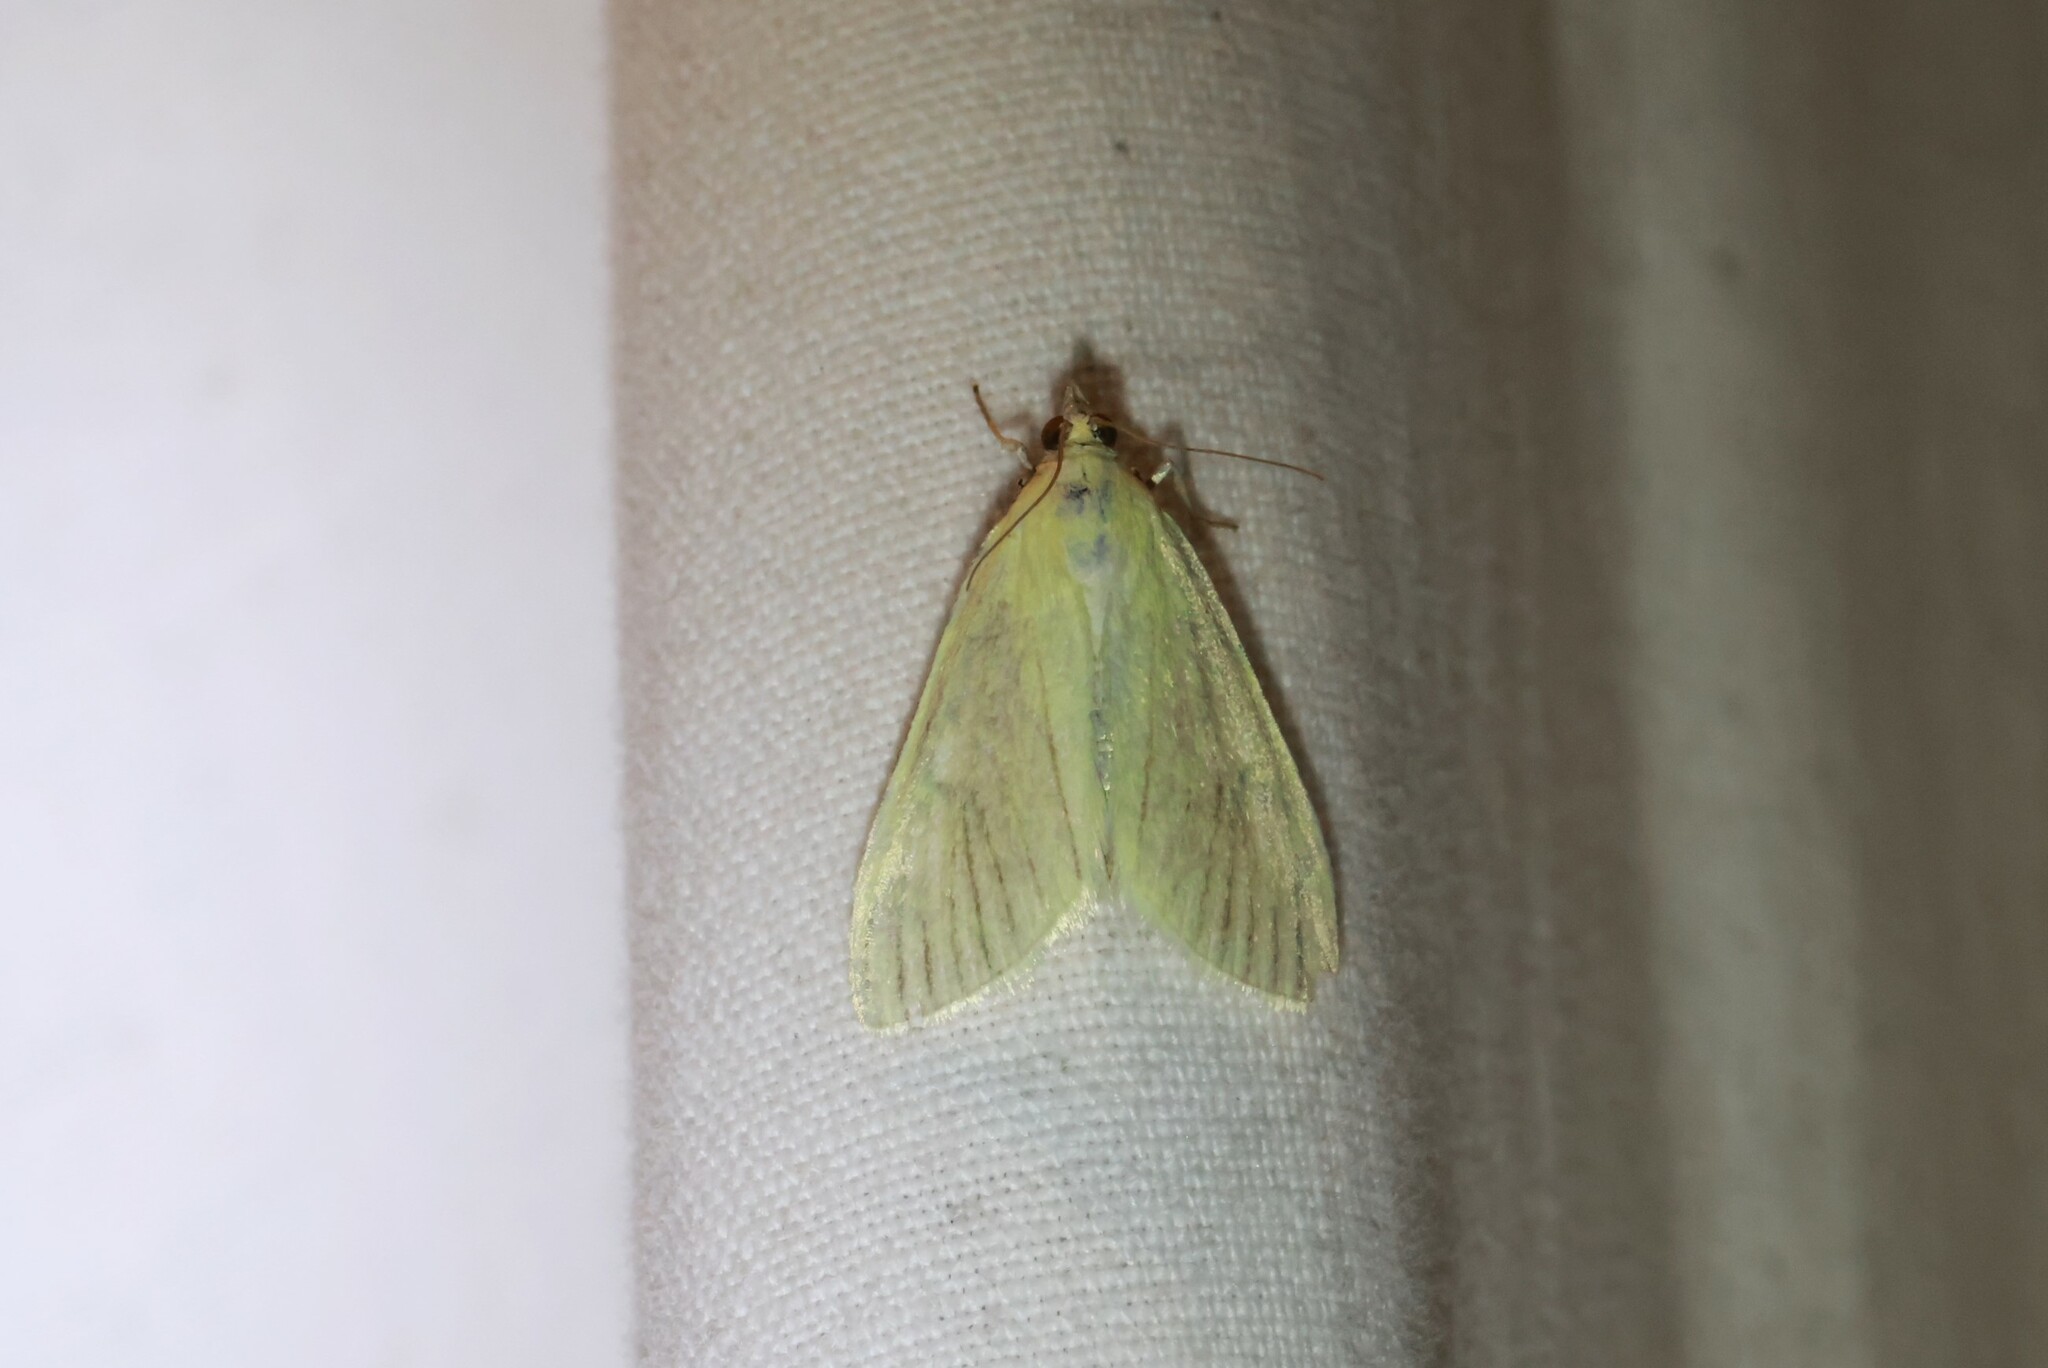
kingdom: Animalia
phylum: Arthropoda
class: Insecta
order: Lepidoptera
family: Crambidae
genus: Sitochroa
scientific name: Sitochroa palealis
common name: Greenish-yellow sitochroa moth
